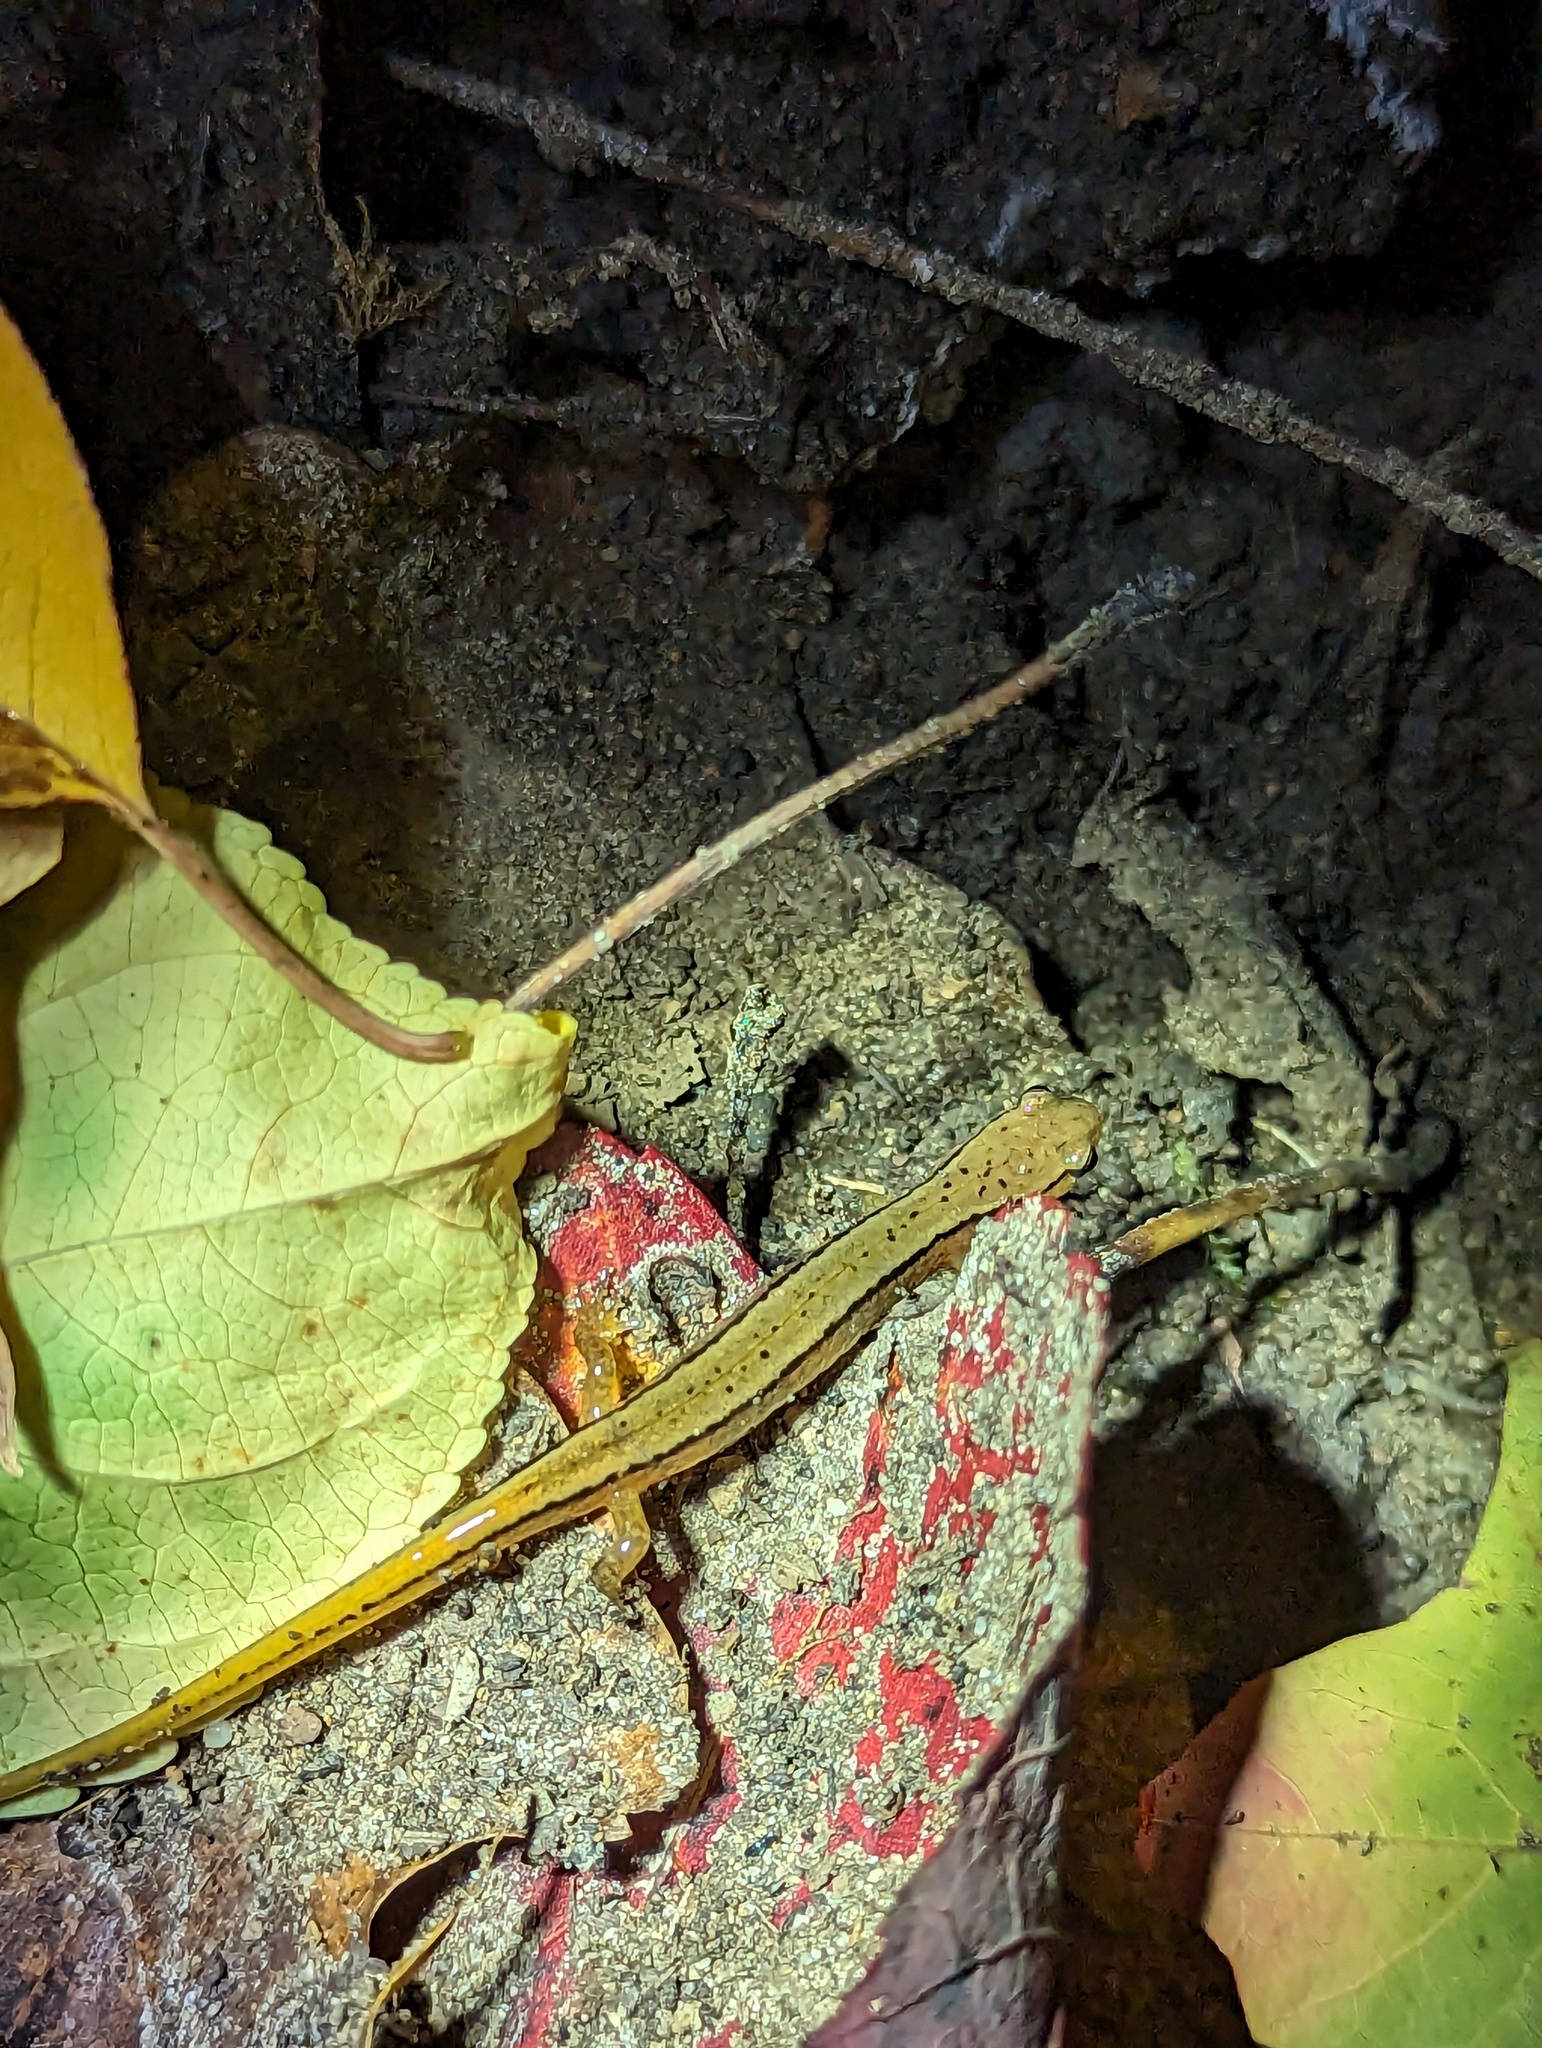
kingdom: Animalia
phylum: Chordata
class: Amphibia
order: Caudata
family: Plethodontidae
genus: Eurycea
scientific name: Eurycea bislineata
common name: Northern two-lined salamander
